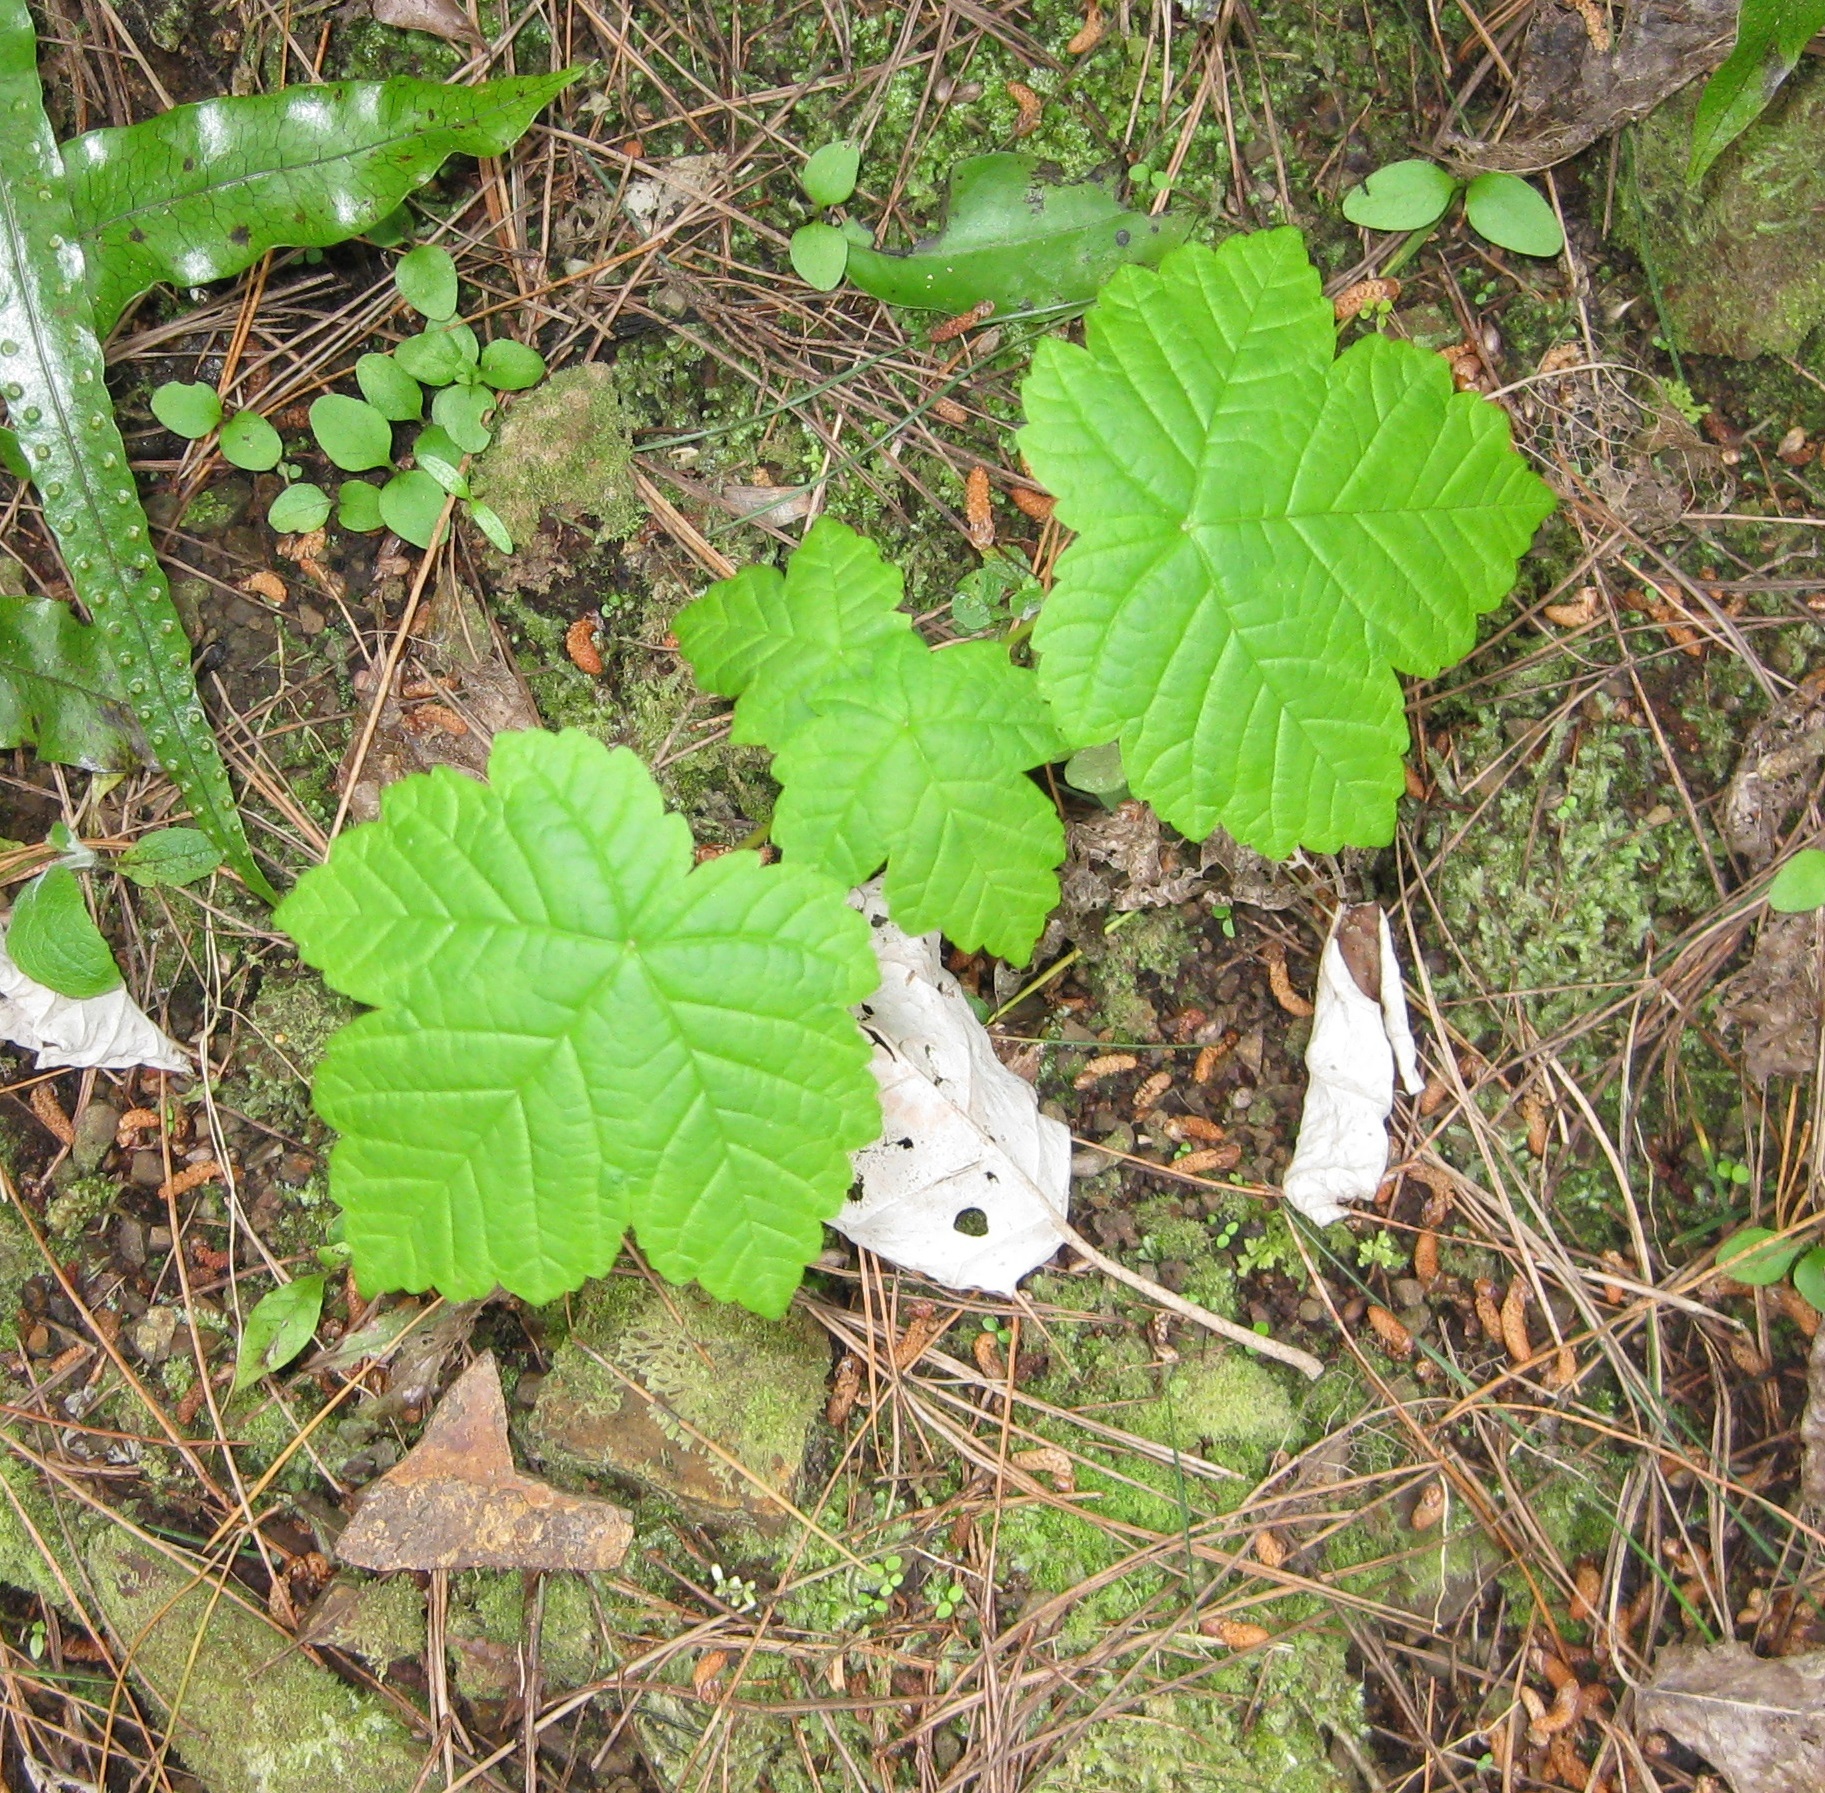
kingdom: Plantae
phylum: Tracheophyta
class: Magnoliopsida
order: Sapindales
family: Sapindaceae
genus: Acer
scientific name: Acer pseudoplatanus
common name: Sycamore
